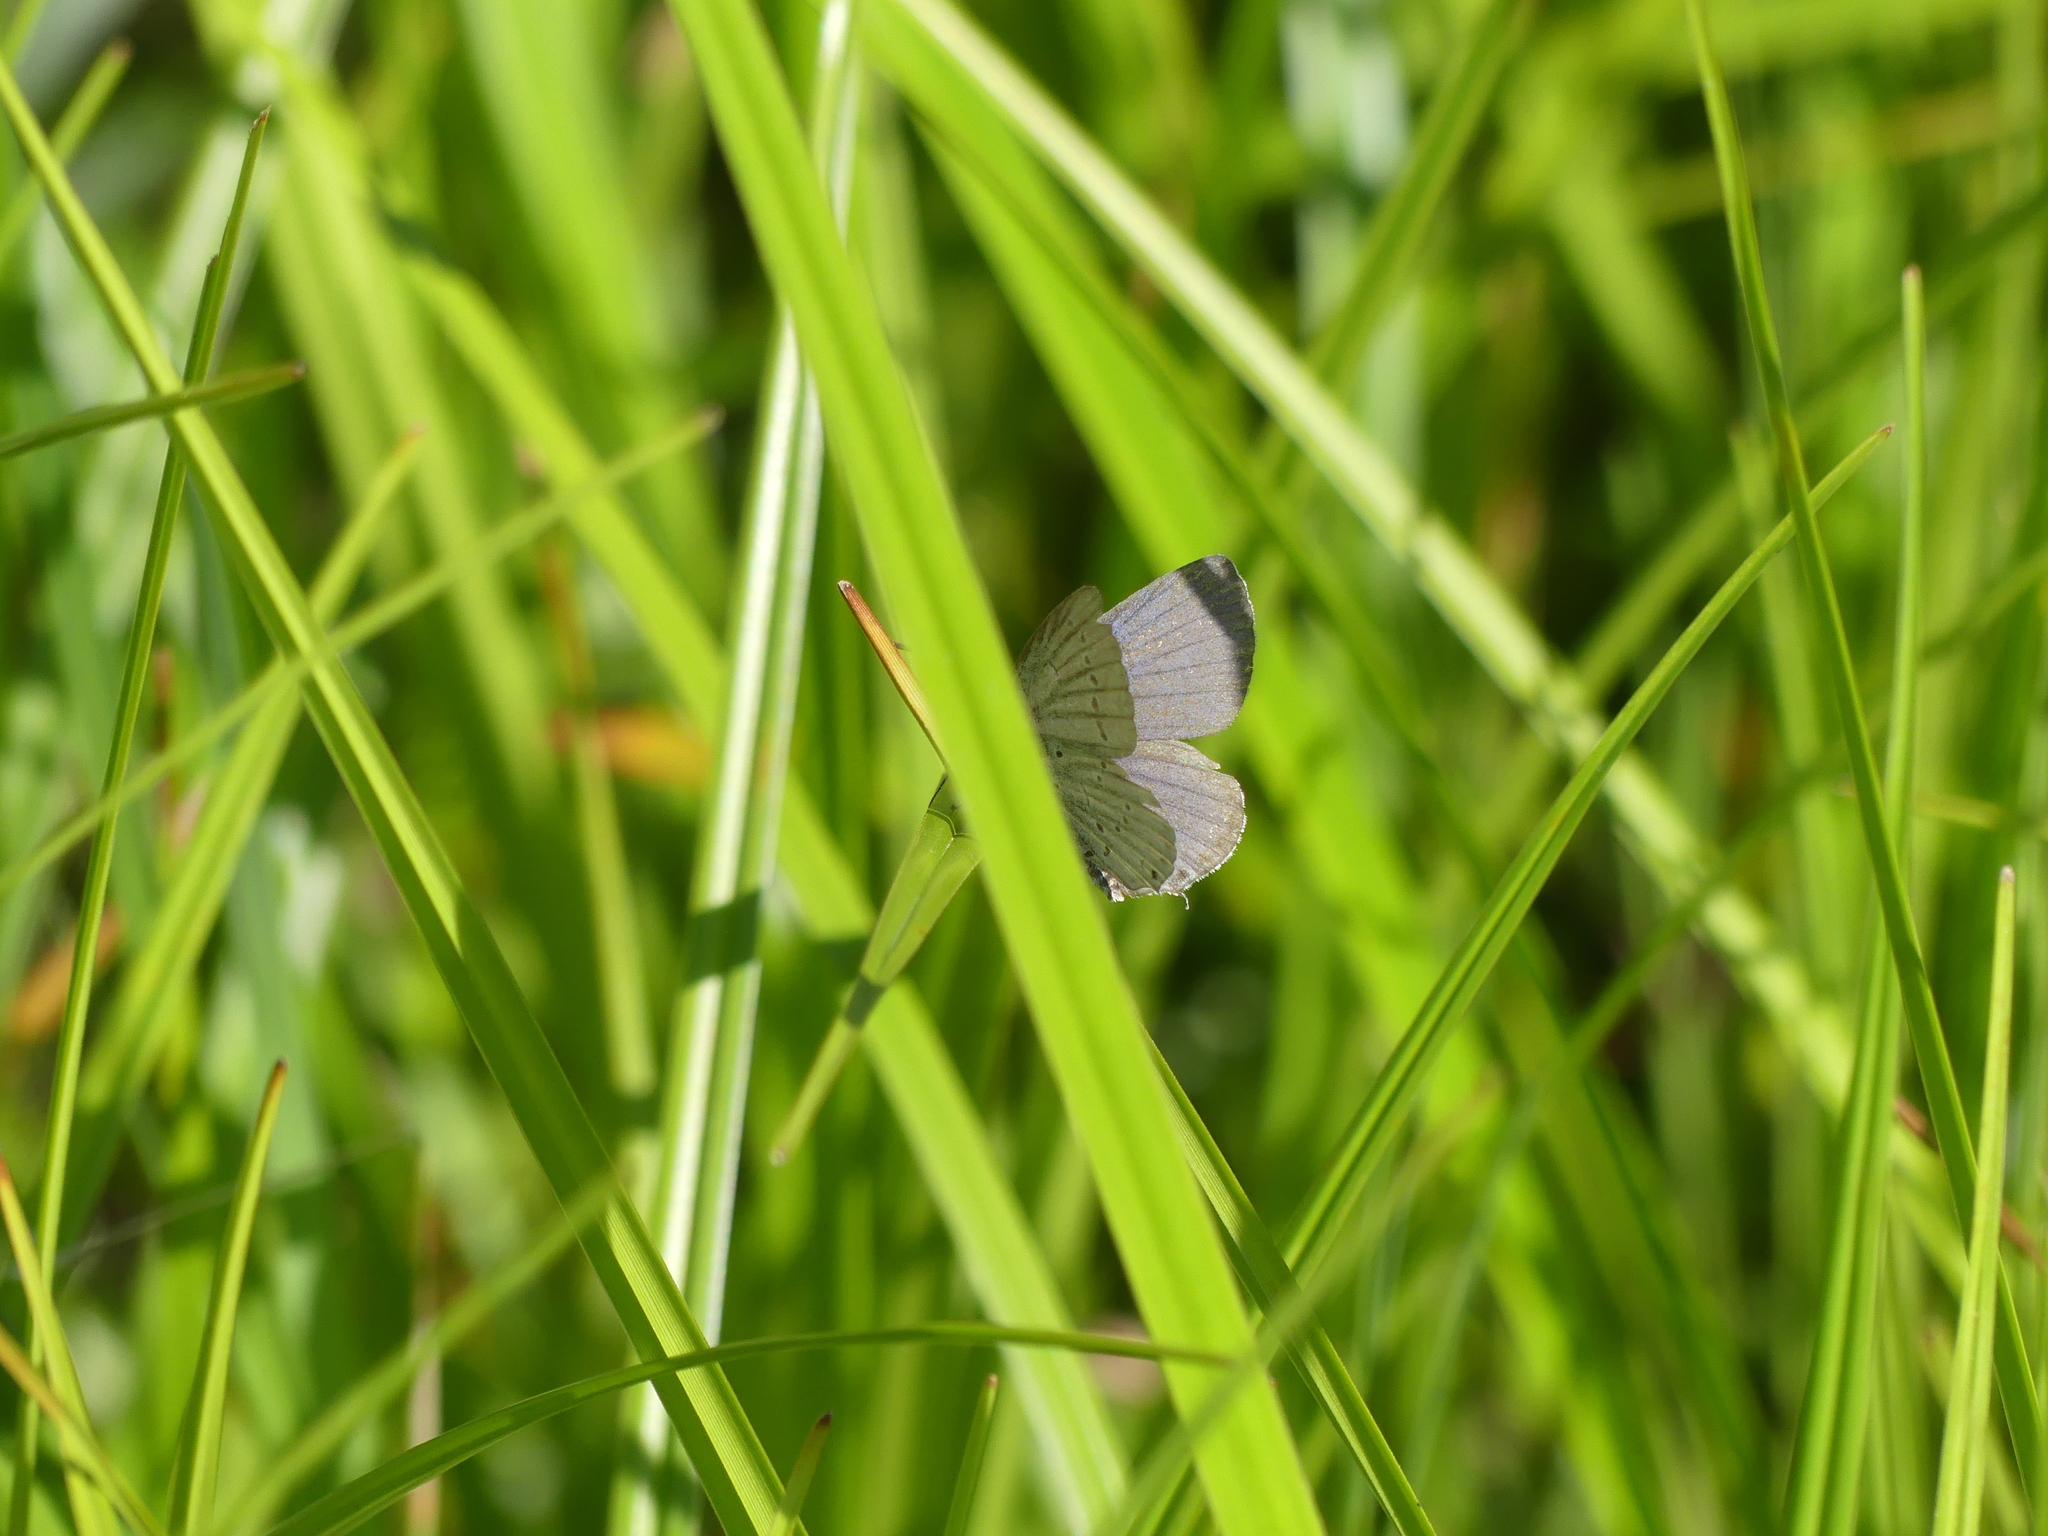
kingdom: Animalia
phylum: Arthropoda
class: Insecta
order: Lepidoptera
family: Lycaenidae
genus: Elkalyce
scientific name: Elkalyce argiades
